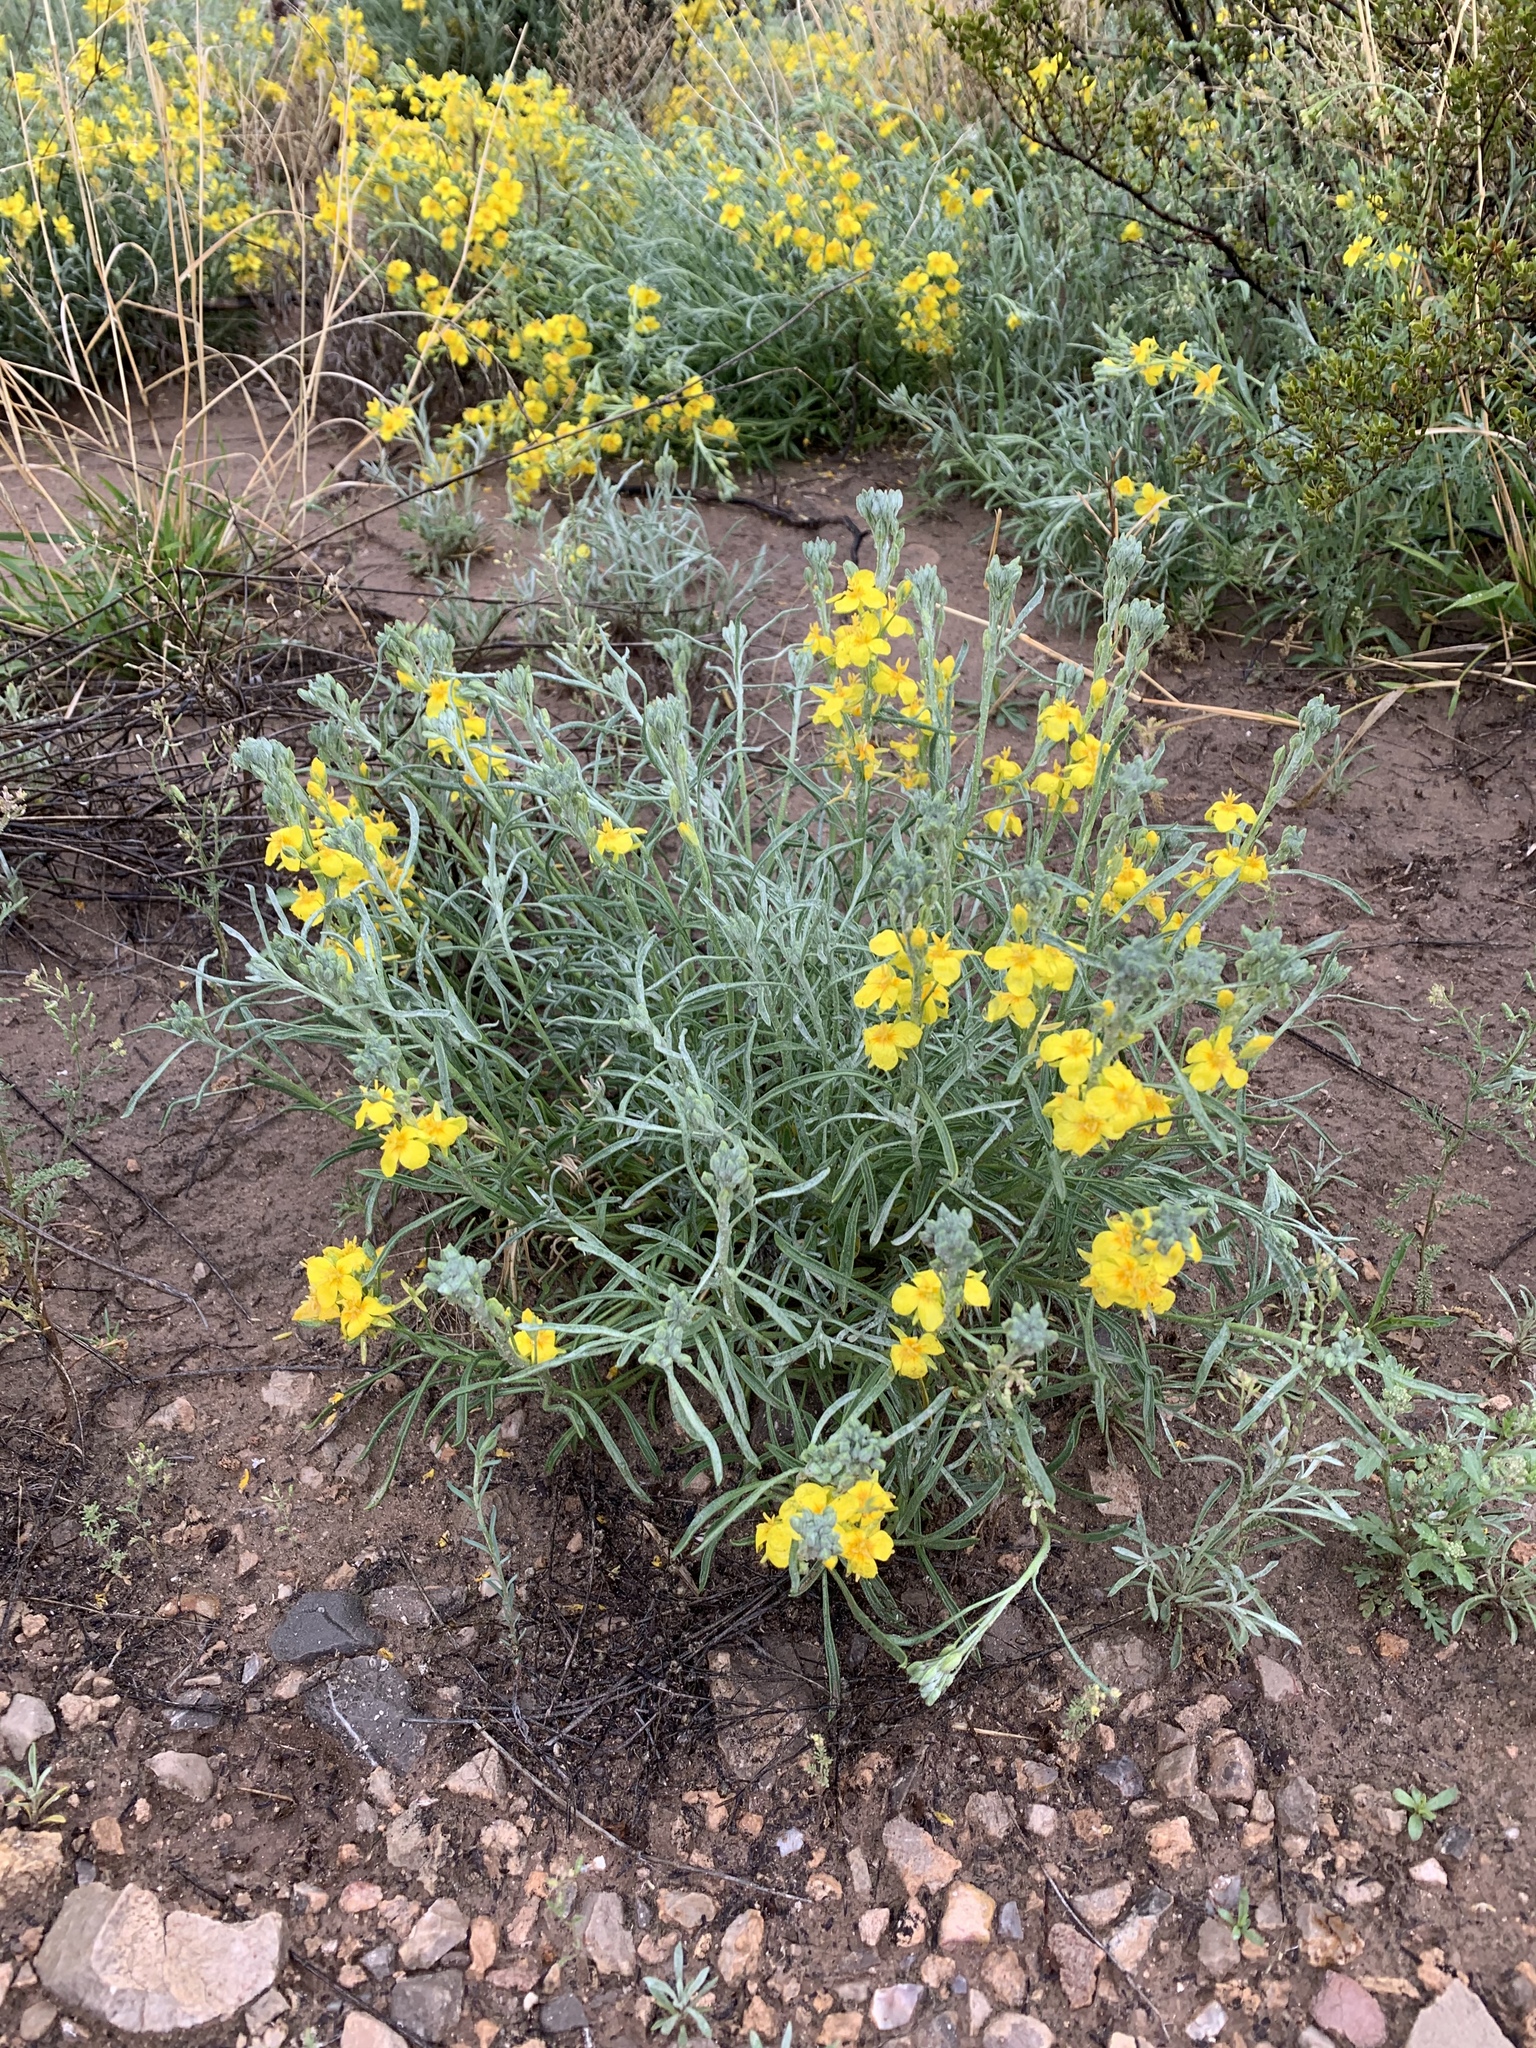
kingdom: Plantae
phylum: Tracheophyta
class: Magnoliopsida
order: Brassicales
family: Brassicaceae
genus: Physaria
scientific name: Physaria fendleri
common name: Fendler's bladderpod
